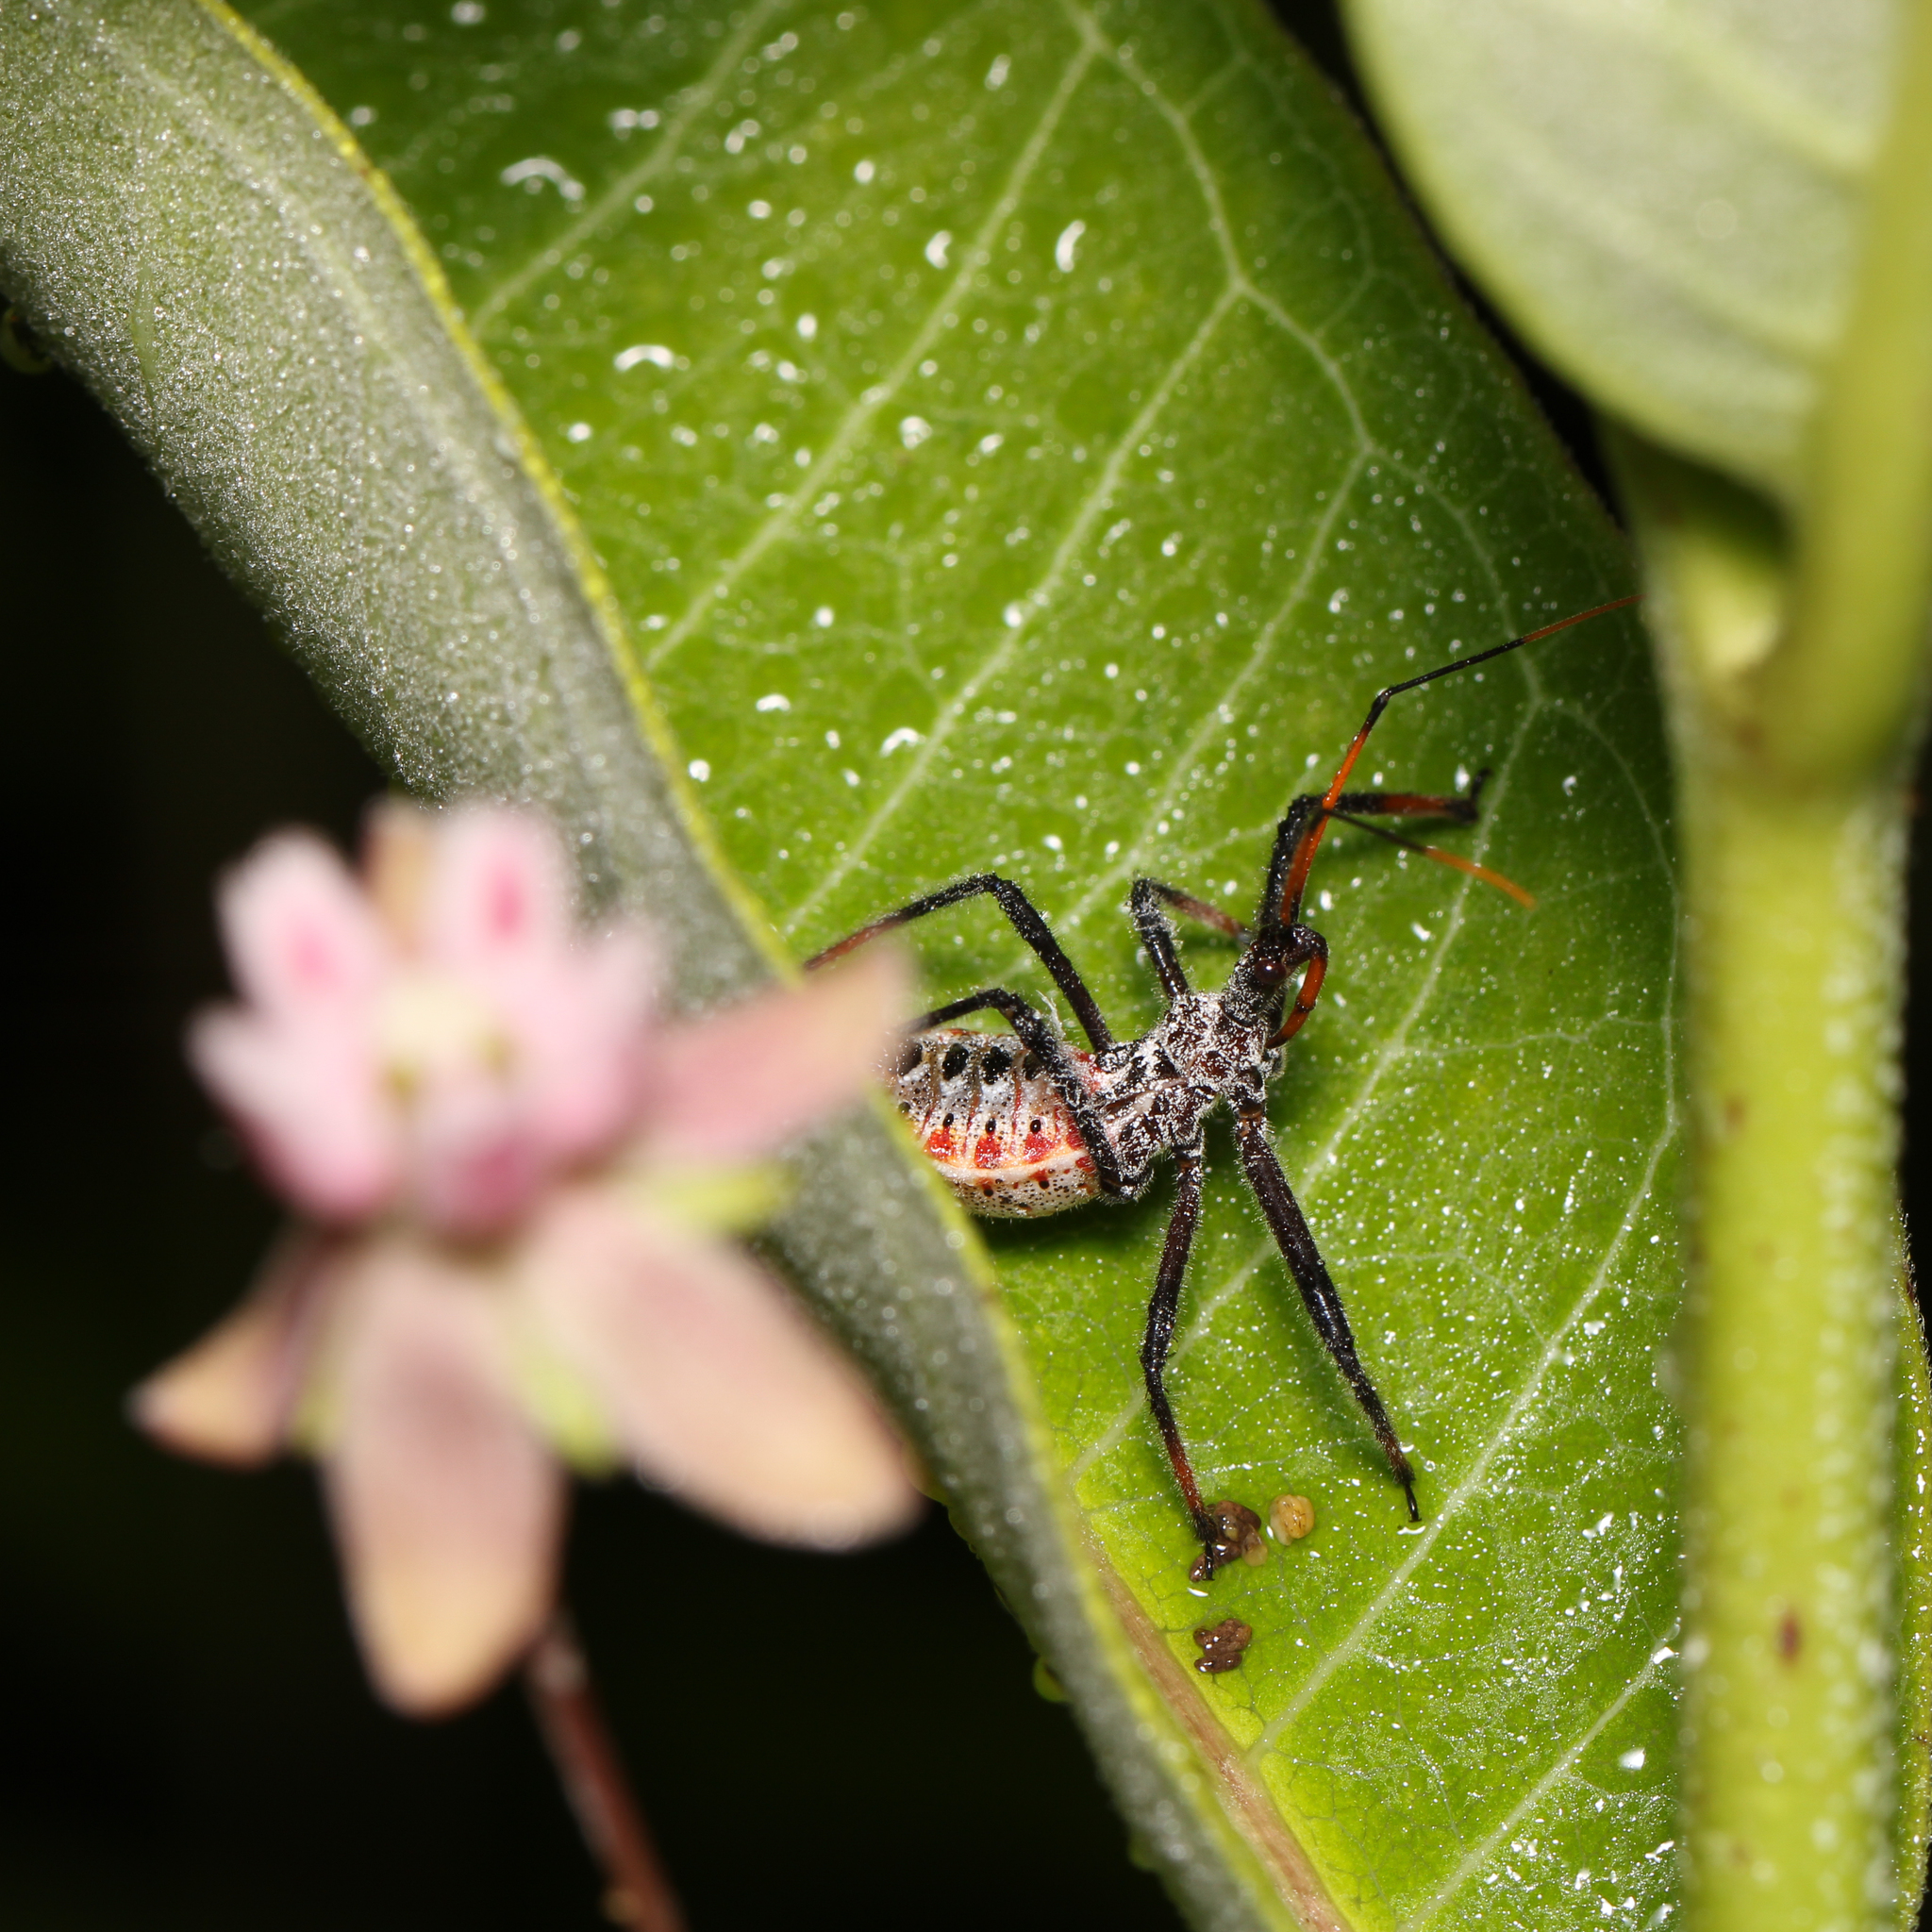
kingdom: Animalia
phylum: Arthropoda
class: Insecta
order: Hemiptera
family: Reduviidae
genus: Arilus
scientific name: Arilus cristatus
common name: North american wheel bug
